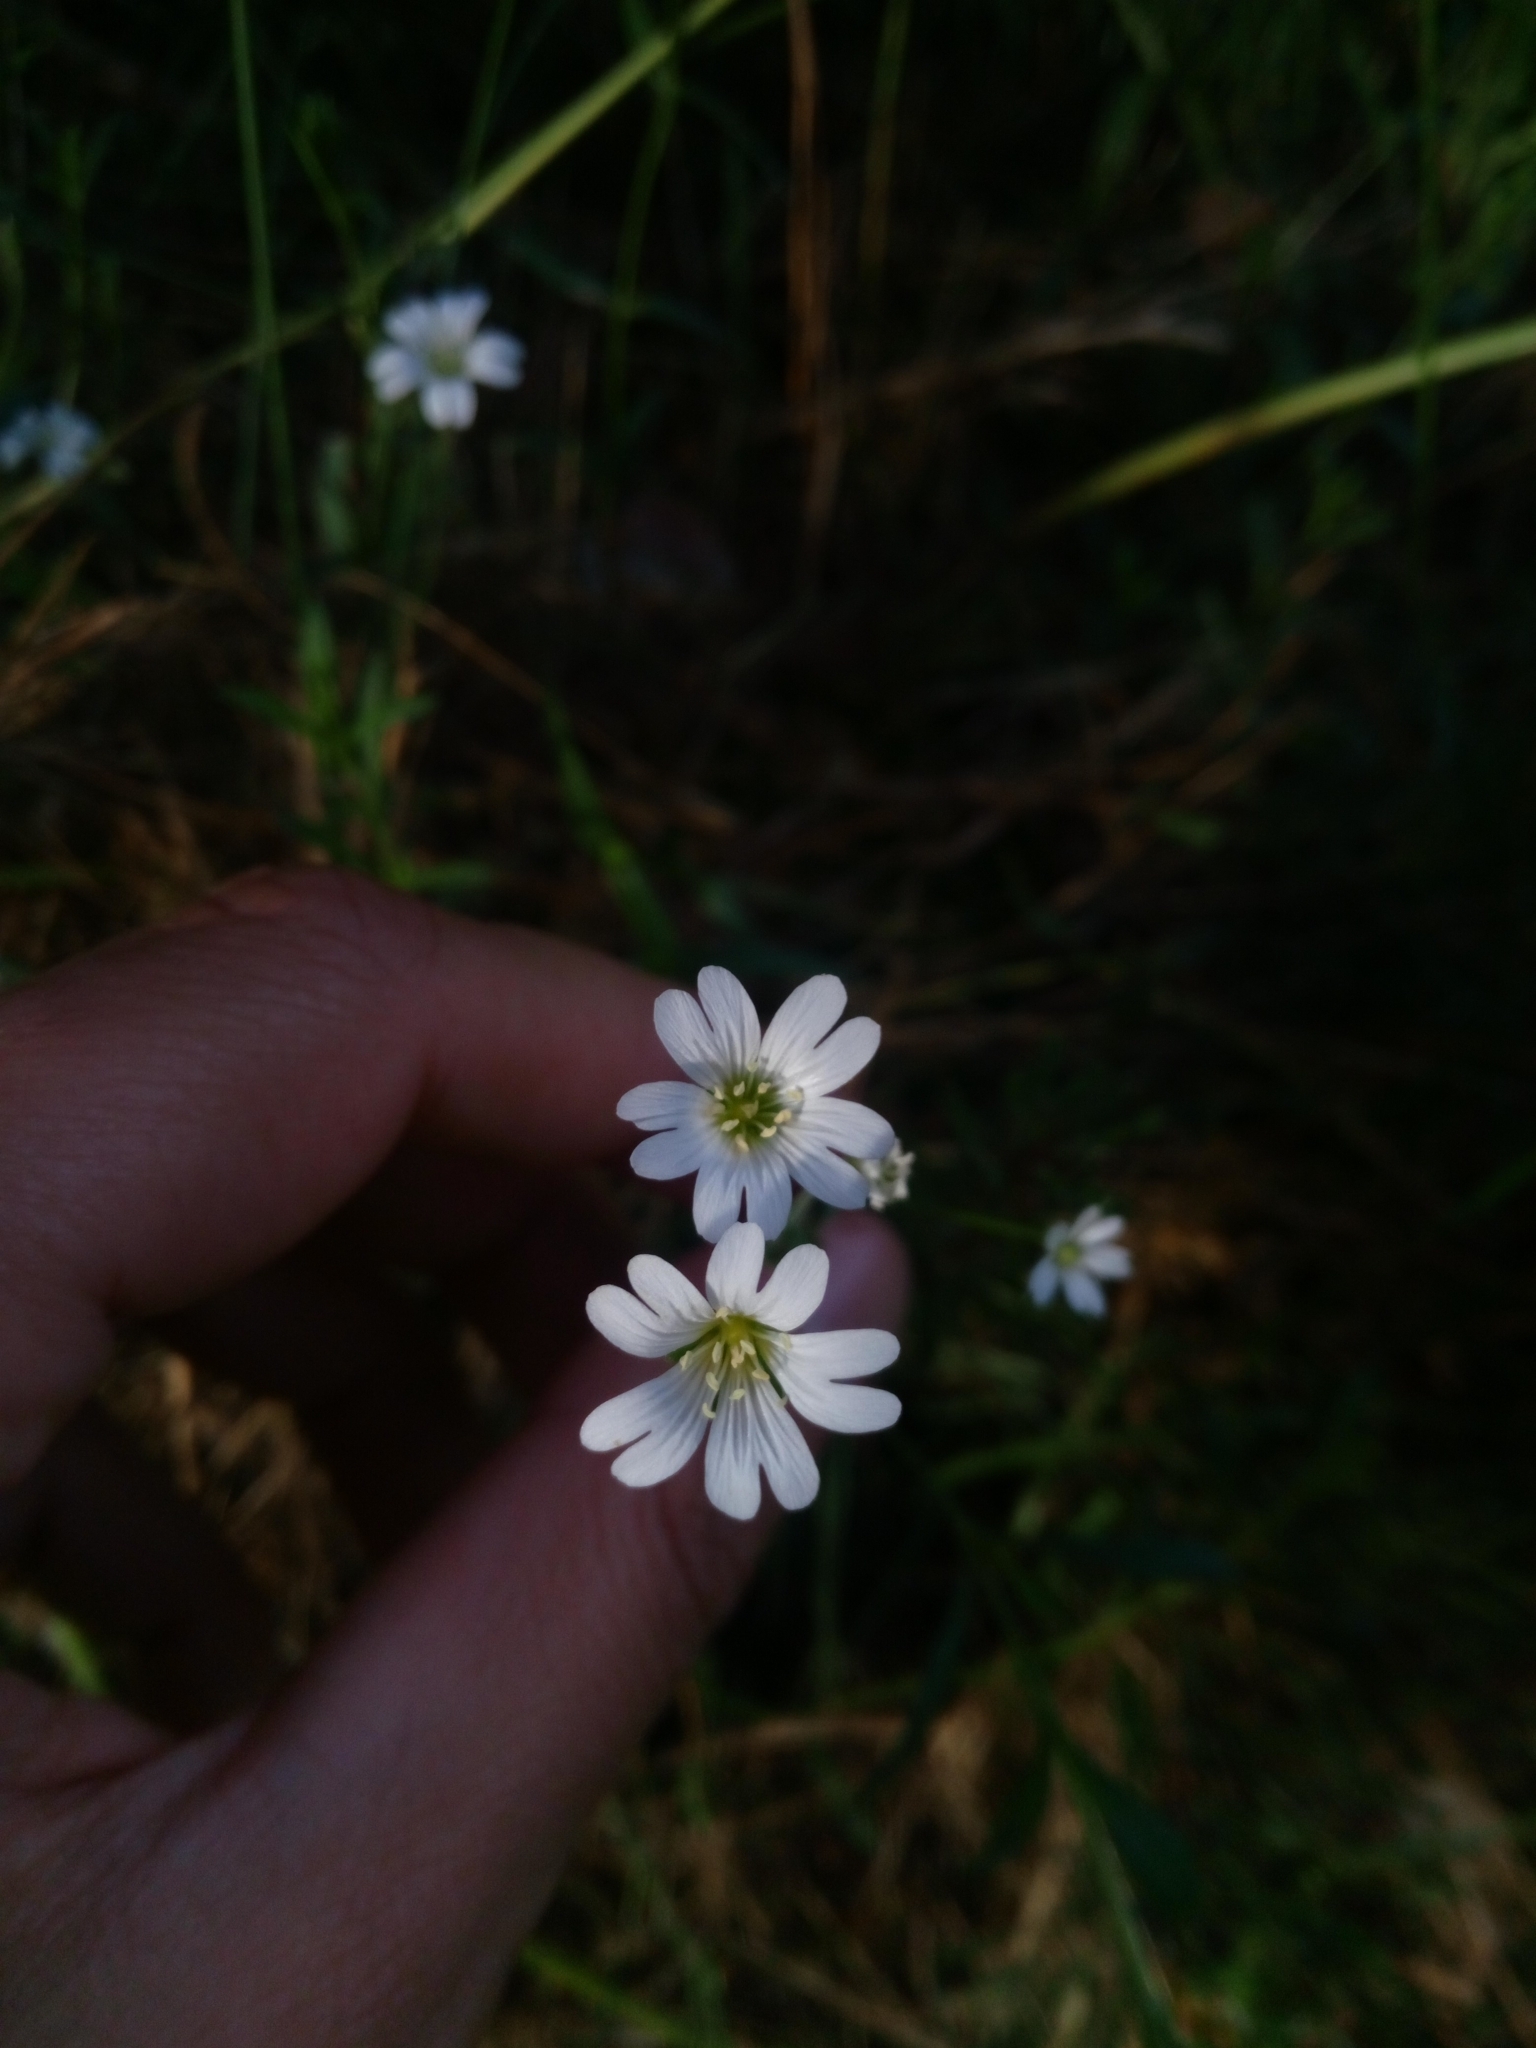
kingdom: Plantae
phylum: Tracheophyta
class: Magnoliopsida
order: Caryophyllales
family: Caryophyllaceae
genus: Cerastium
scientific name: Cerastium arvense
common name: Field mouse-ear
